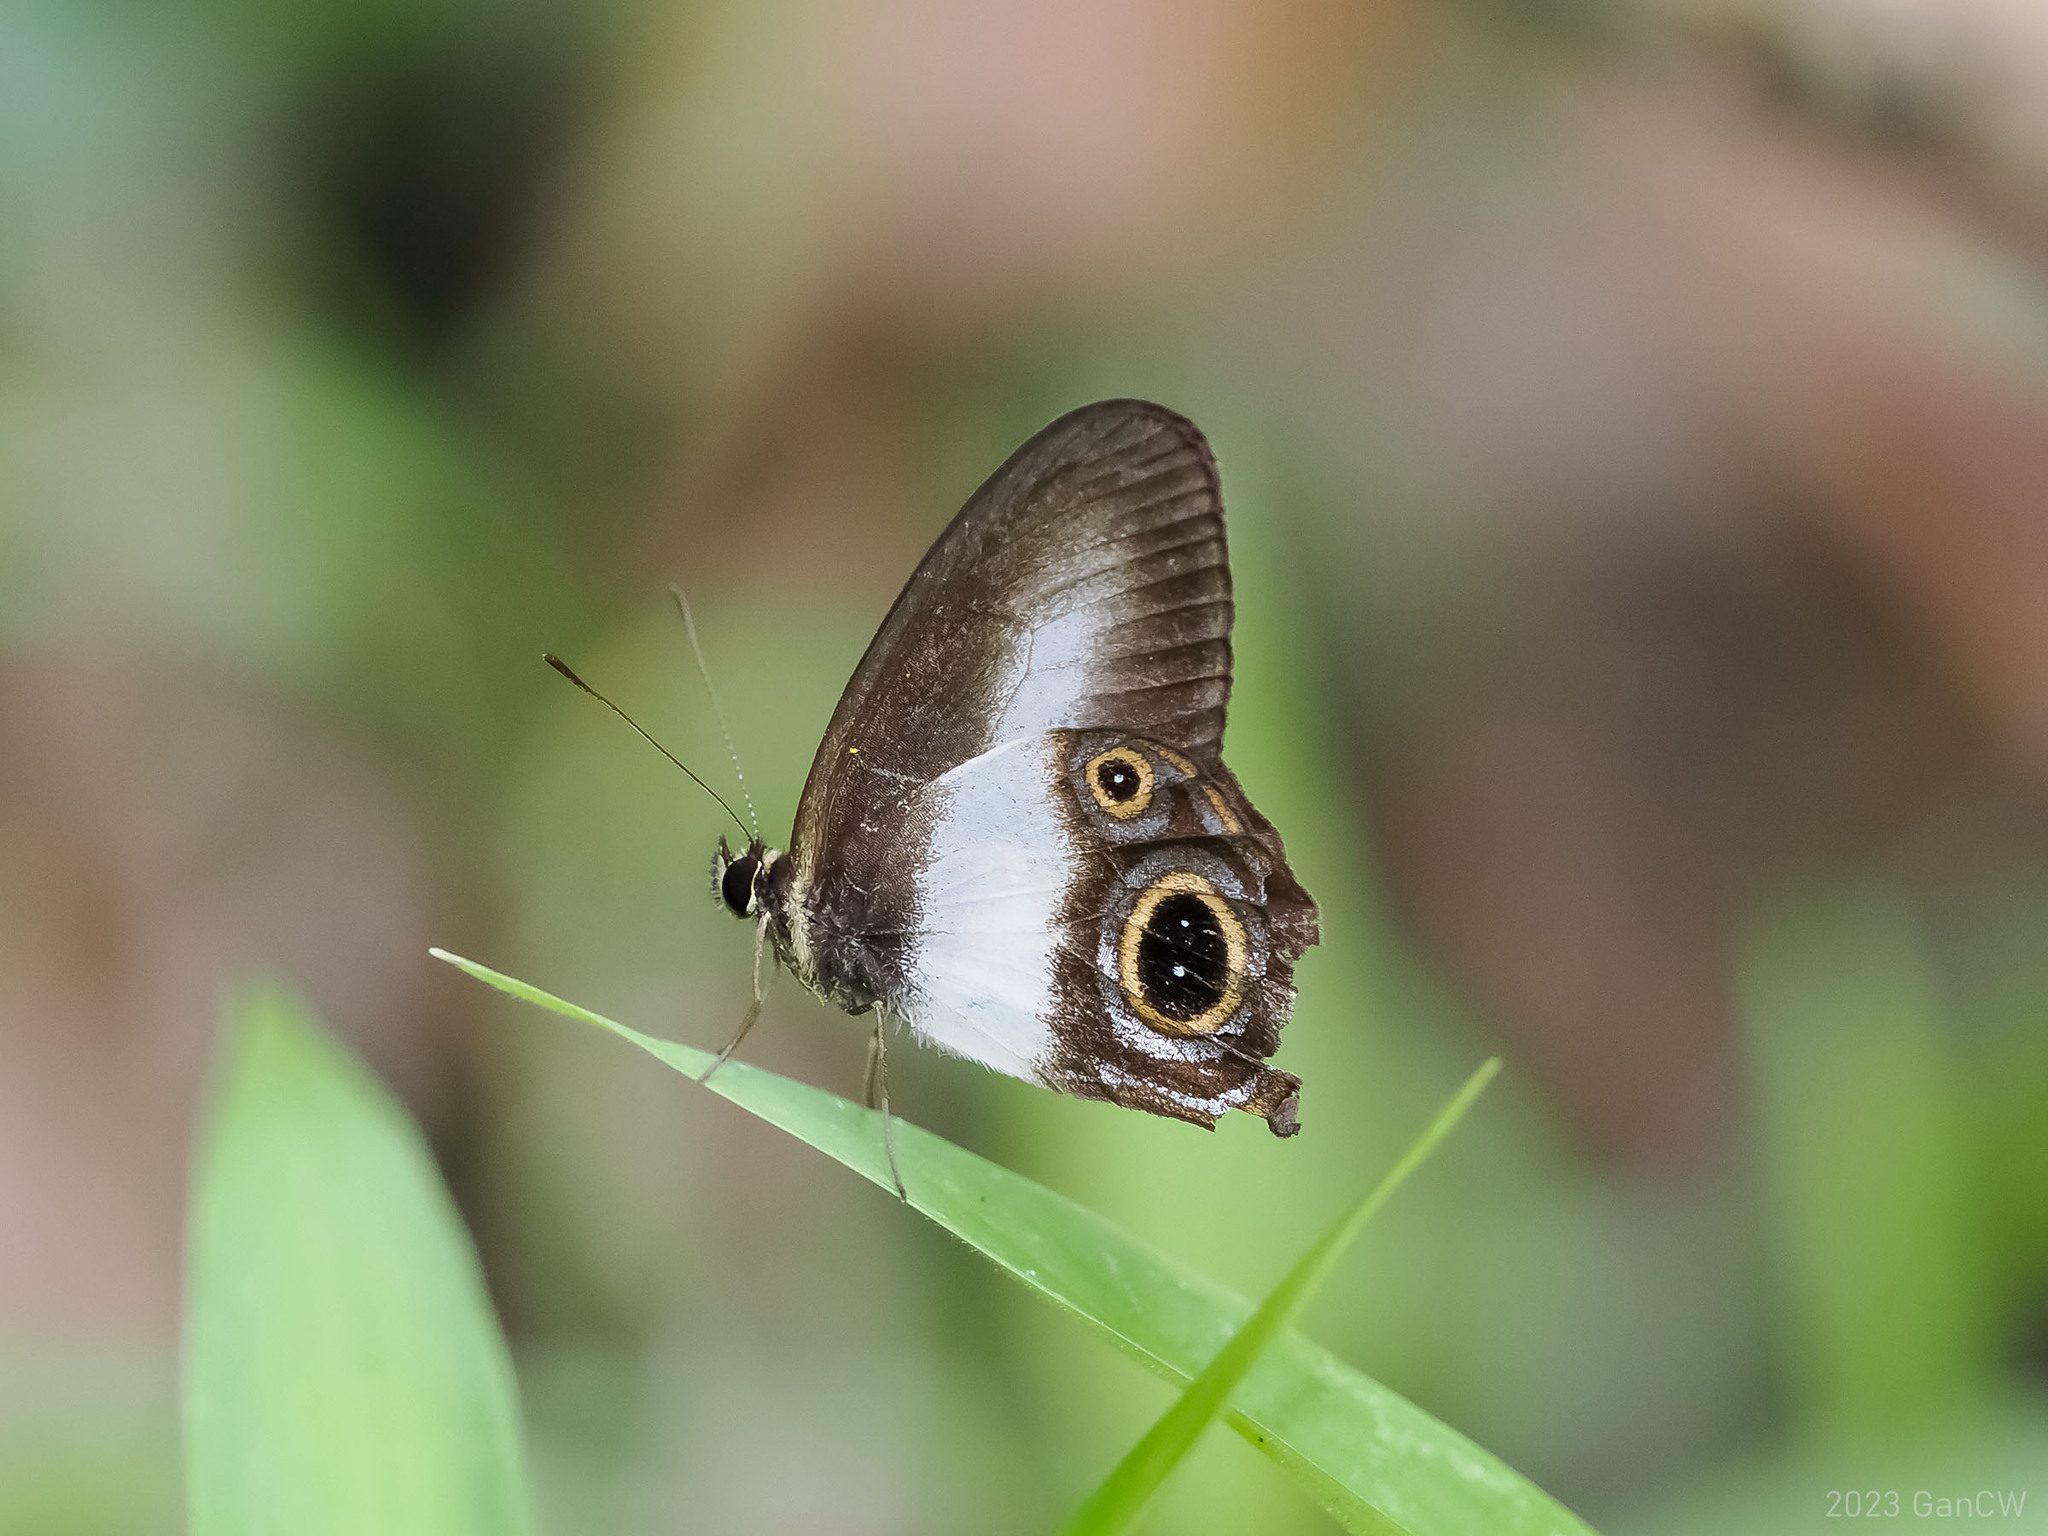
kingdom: Animalia
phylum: Arthropoda
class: Insecta
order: Lepidoptera
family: Nymphalidae
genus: Hypocysta
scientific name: Hypocysta osyris
